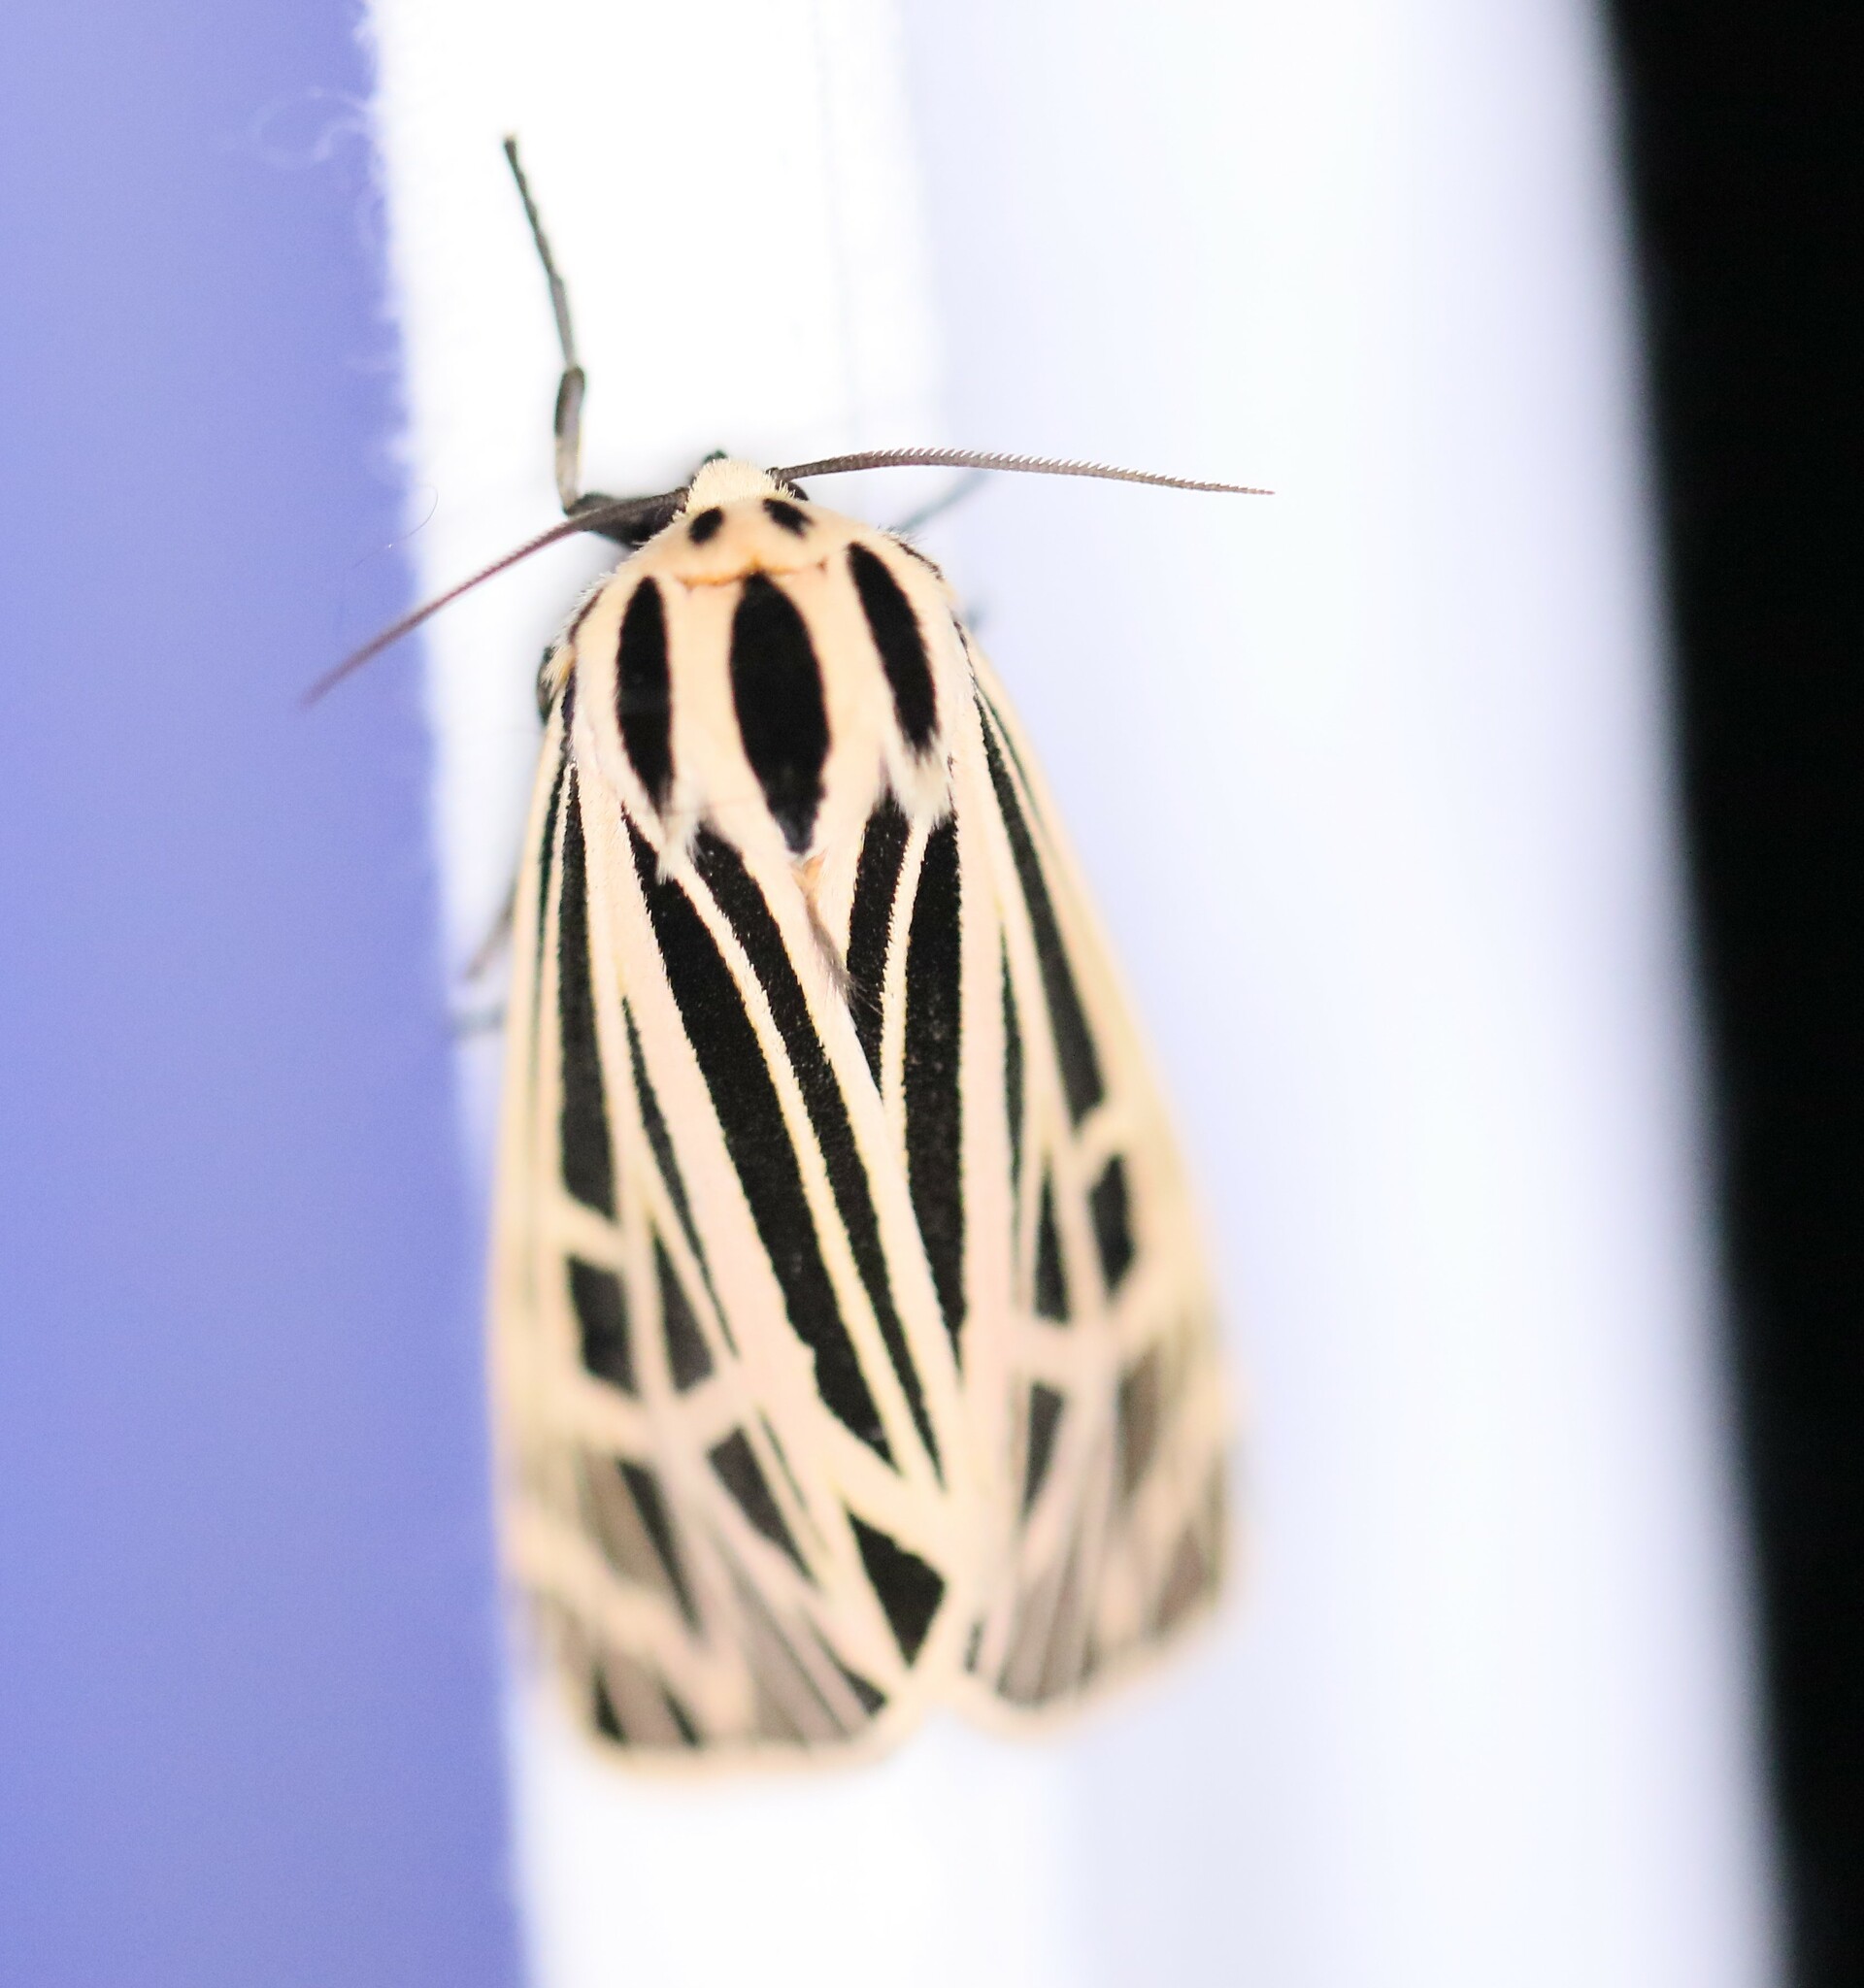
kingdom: Animalia
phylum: Arthropoda
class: Insecta
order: Lepidoptera
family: Erebidae
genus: Grammia
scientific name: Grammia virgo
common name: Virgin tiger moth
